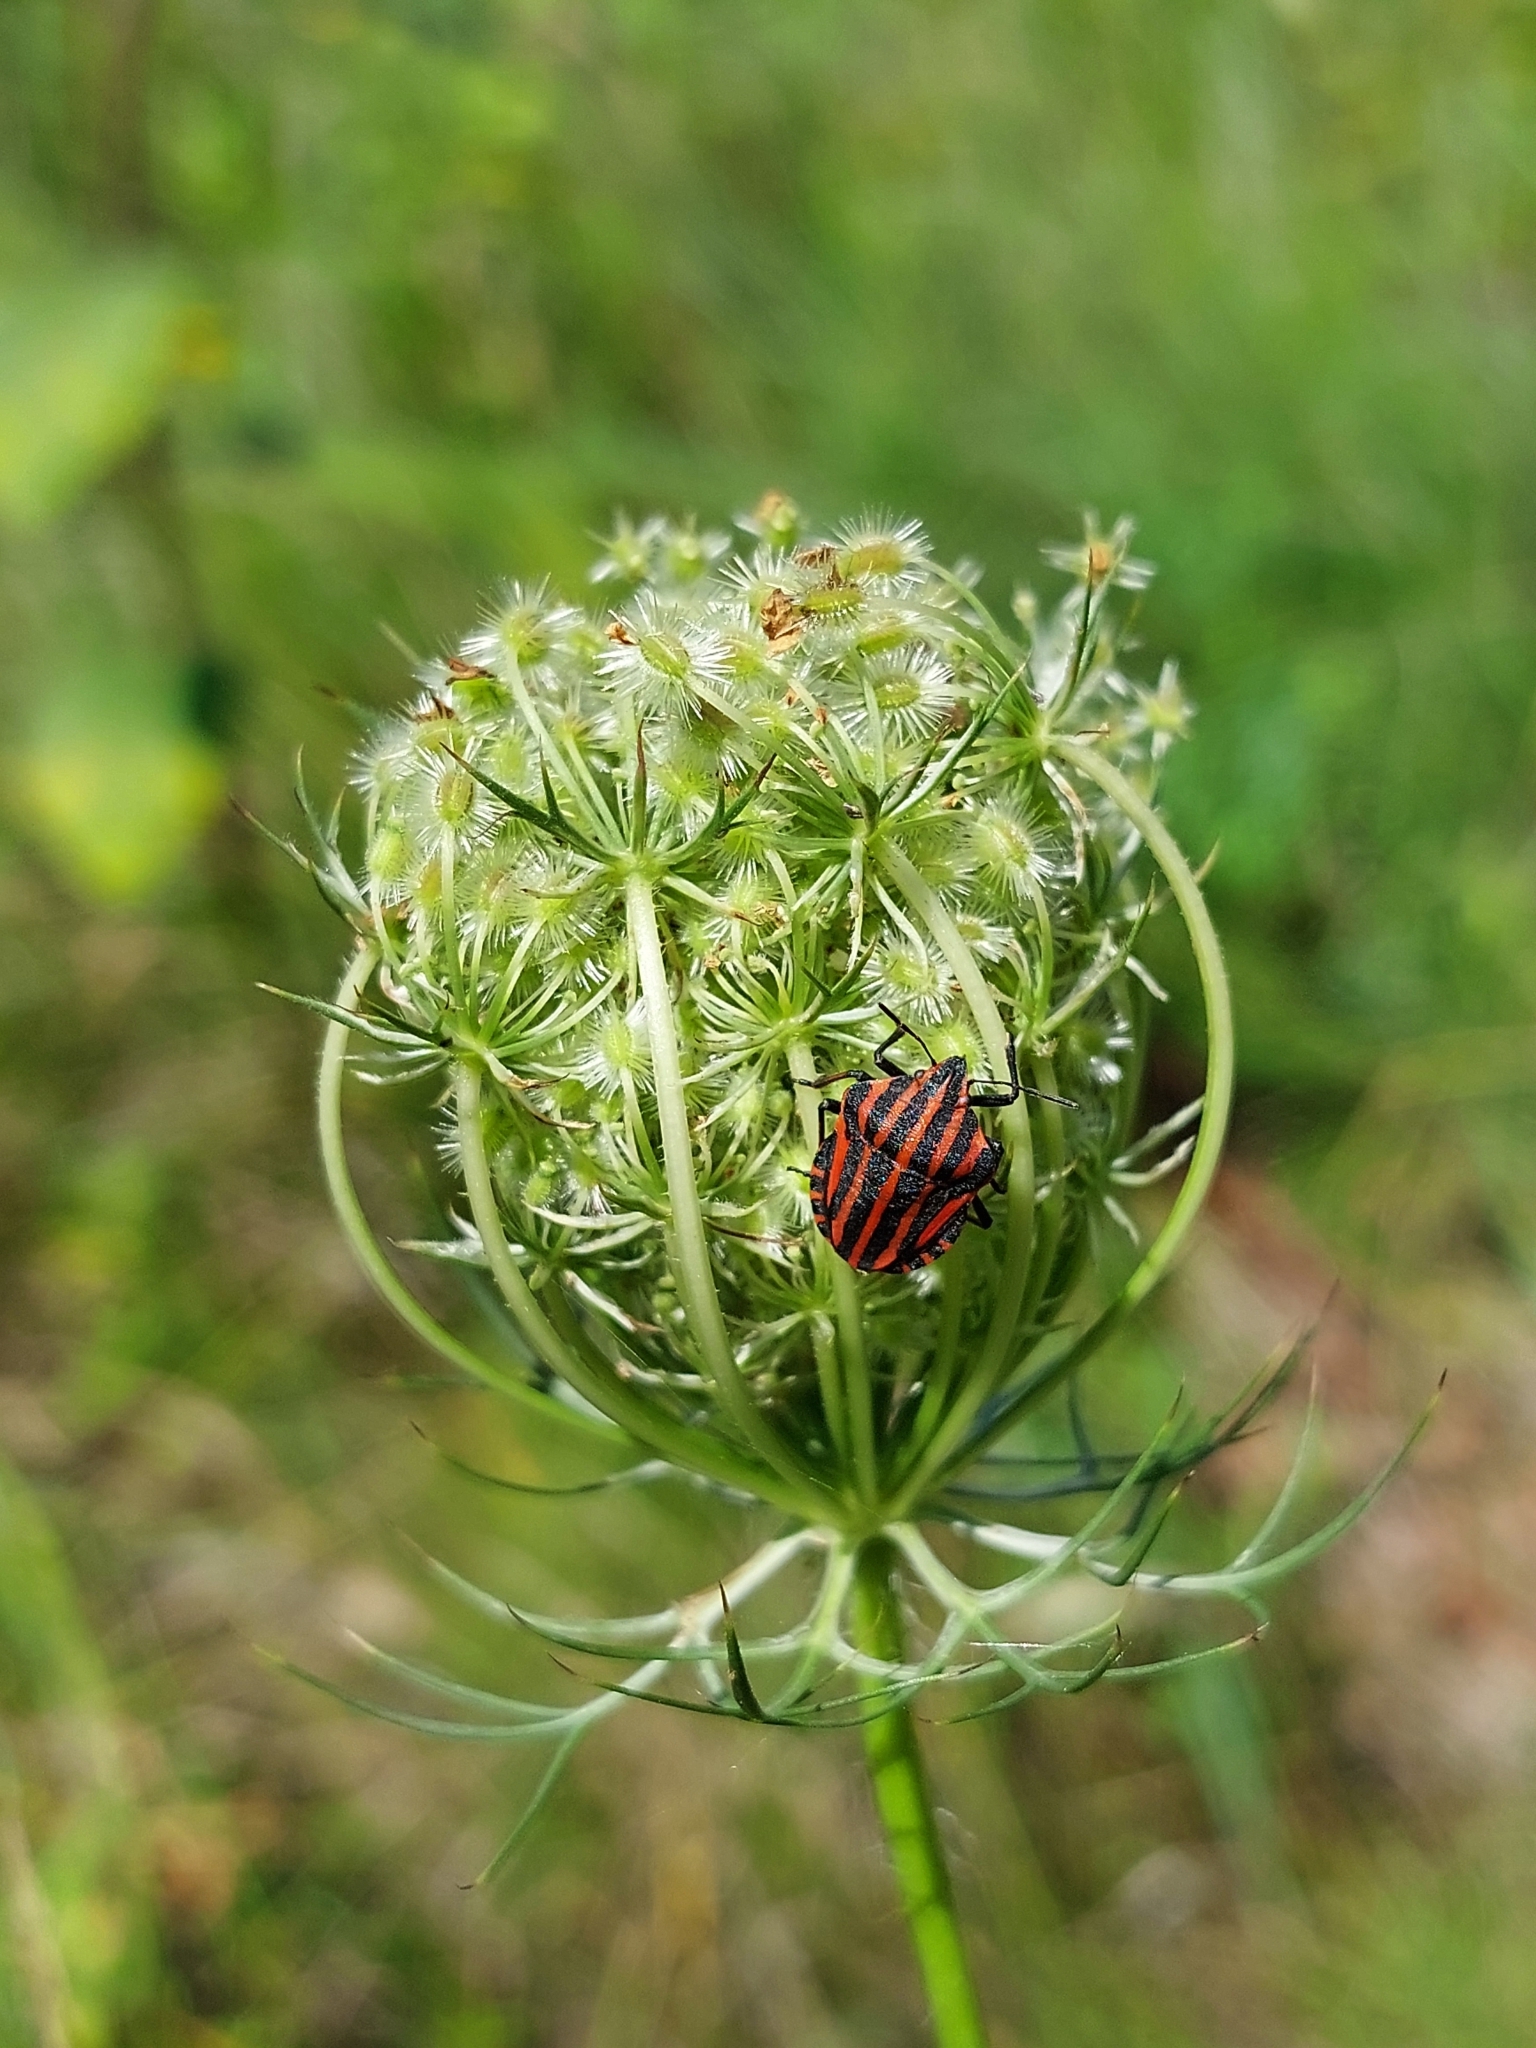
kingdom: Animalia
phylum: Arthropoda
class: Insecta
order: Hemiptera
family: Pentatomidae
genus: Graphosoma
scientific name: Graphosoma italicum
